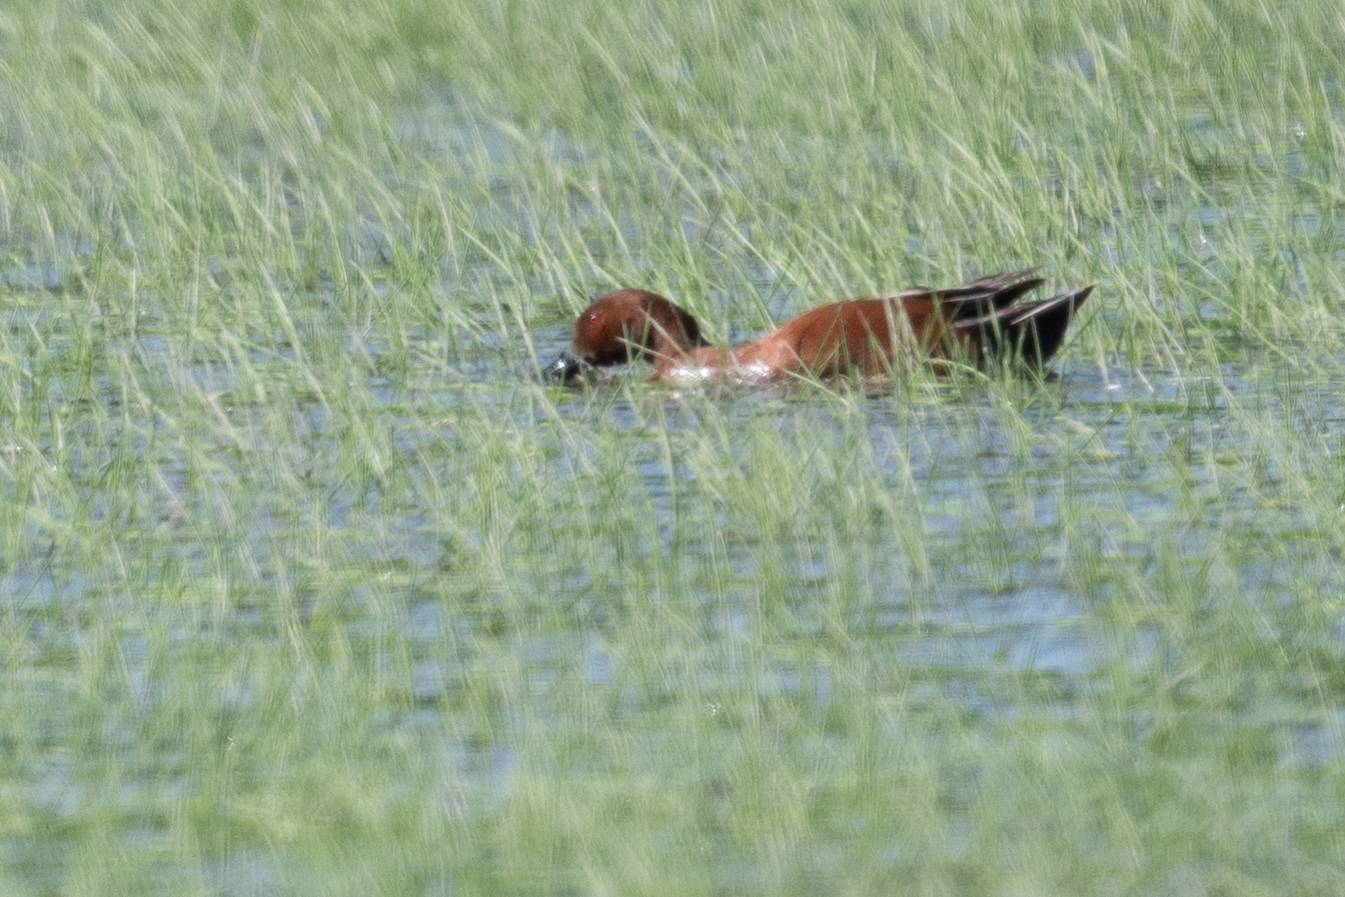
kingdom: Animalia
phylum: Chordata
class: Aves
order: Anseriformes
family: Anatidae
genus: Spatula
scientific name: Spatula cyanoptera
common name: Cinnamon teal
